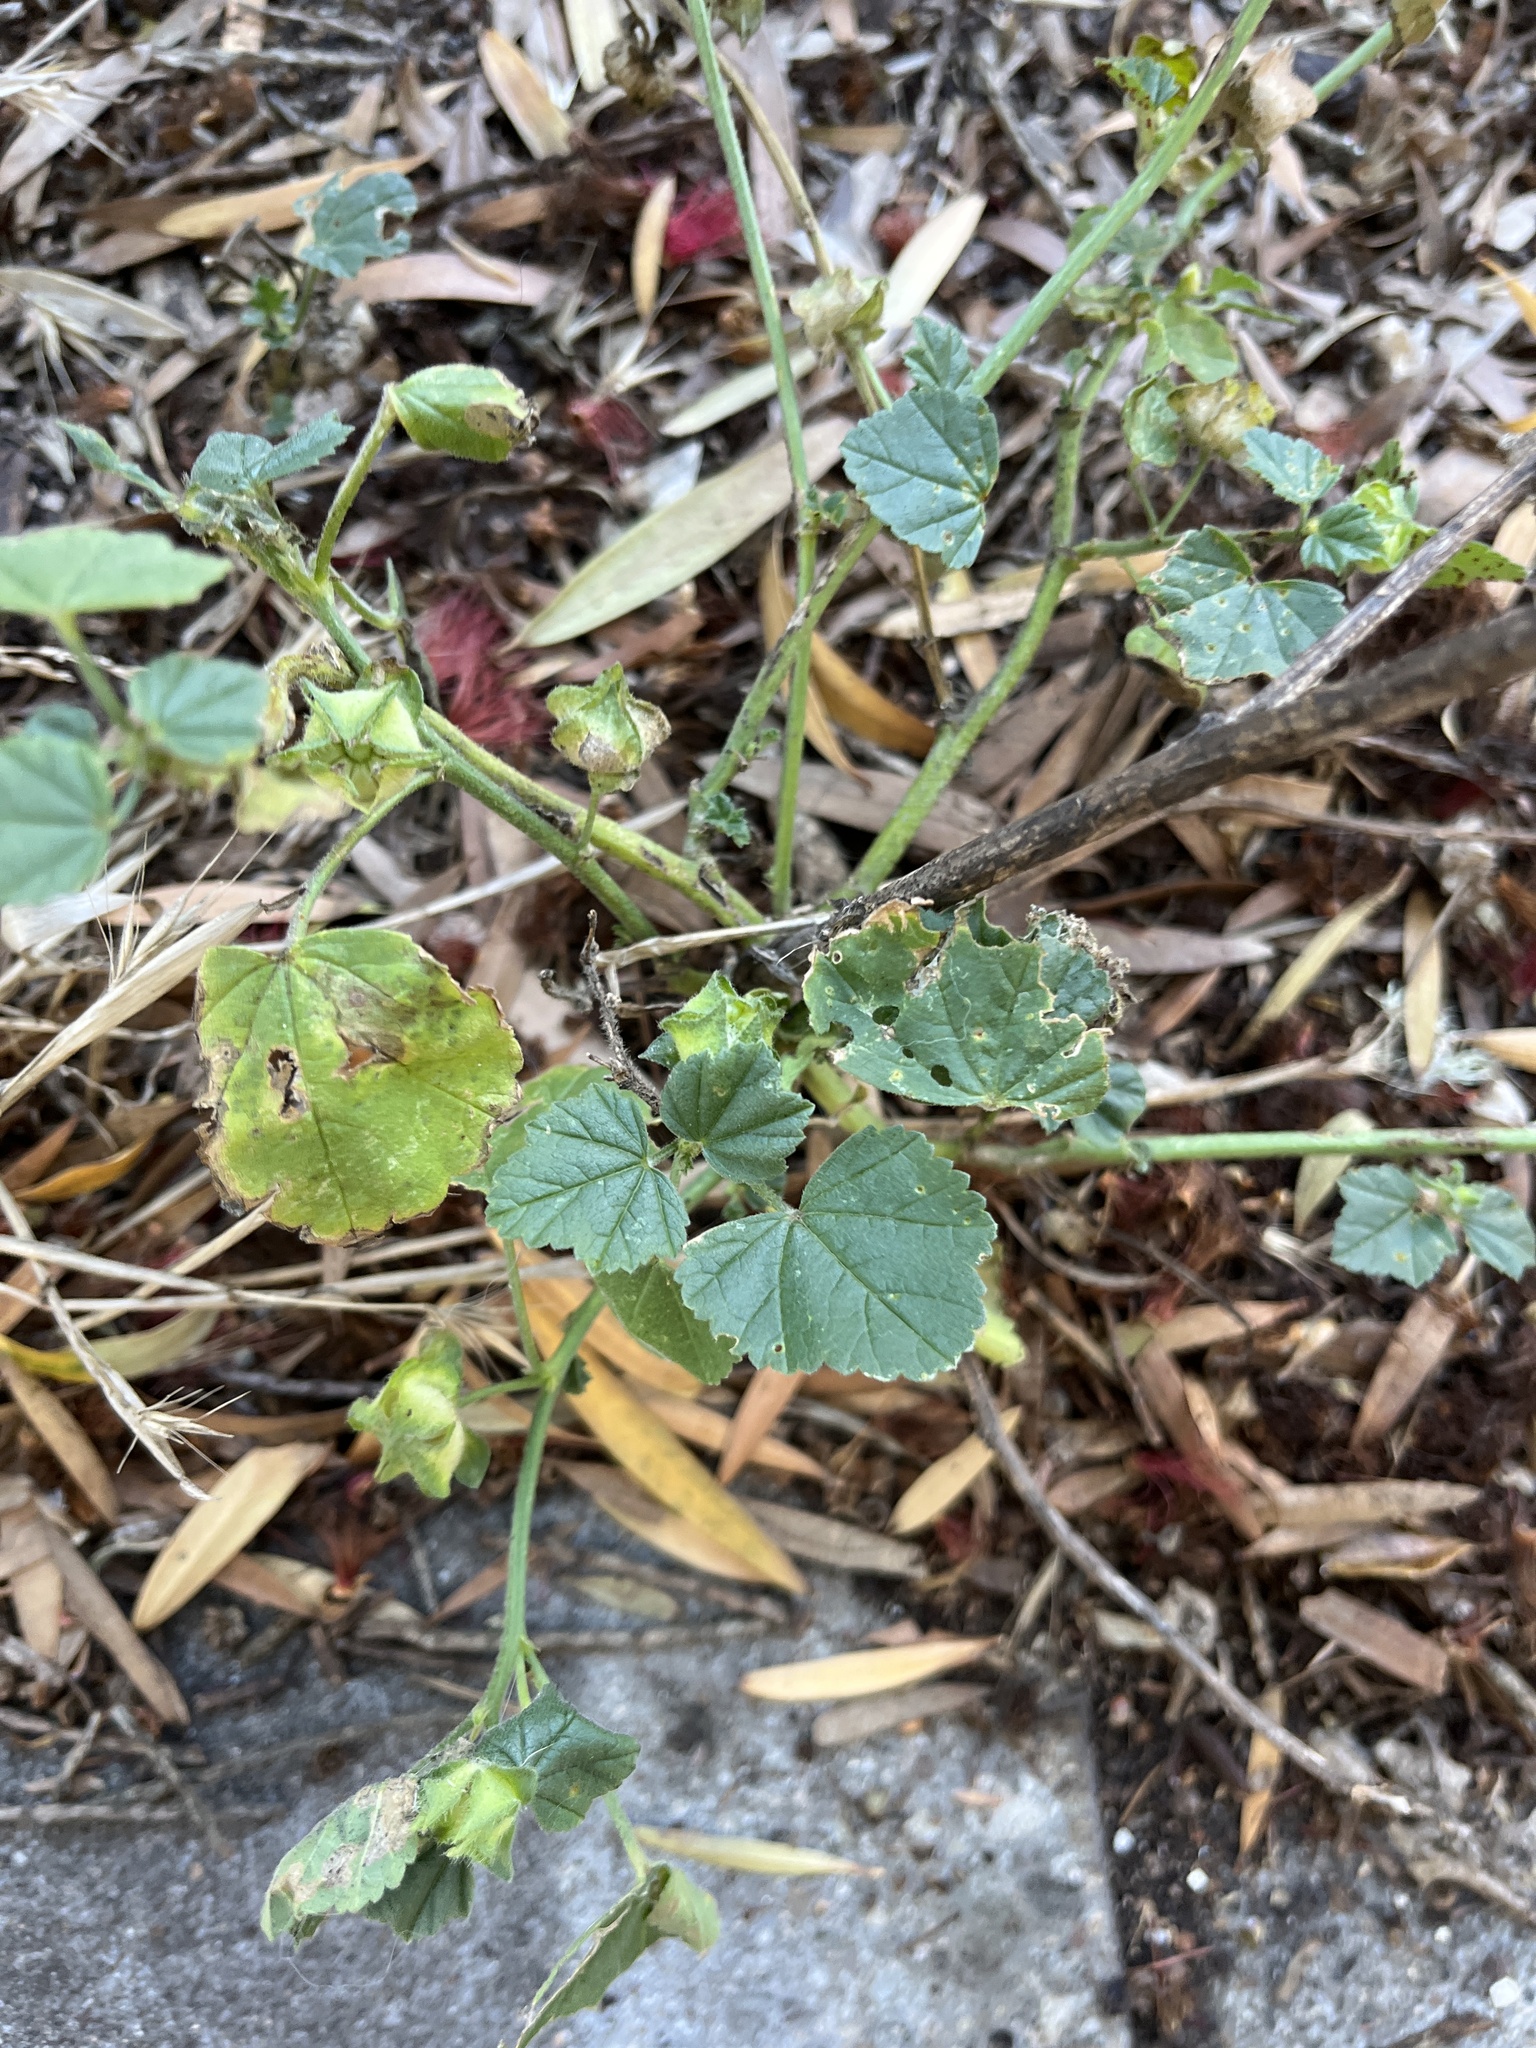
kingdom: Plantae
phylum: Tracheophyta
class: Magnoliopsida
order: Malvales
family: Malvaceae
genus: Malva
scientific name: Malva multiflora
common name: Cheeseweed
